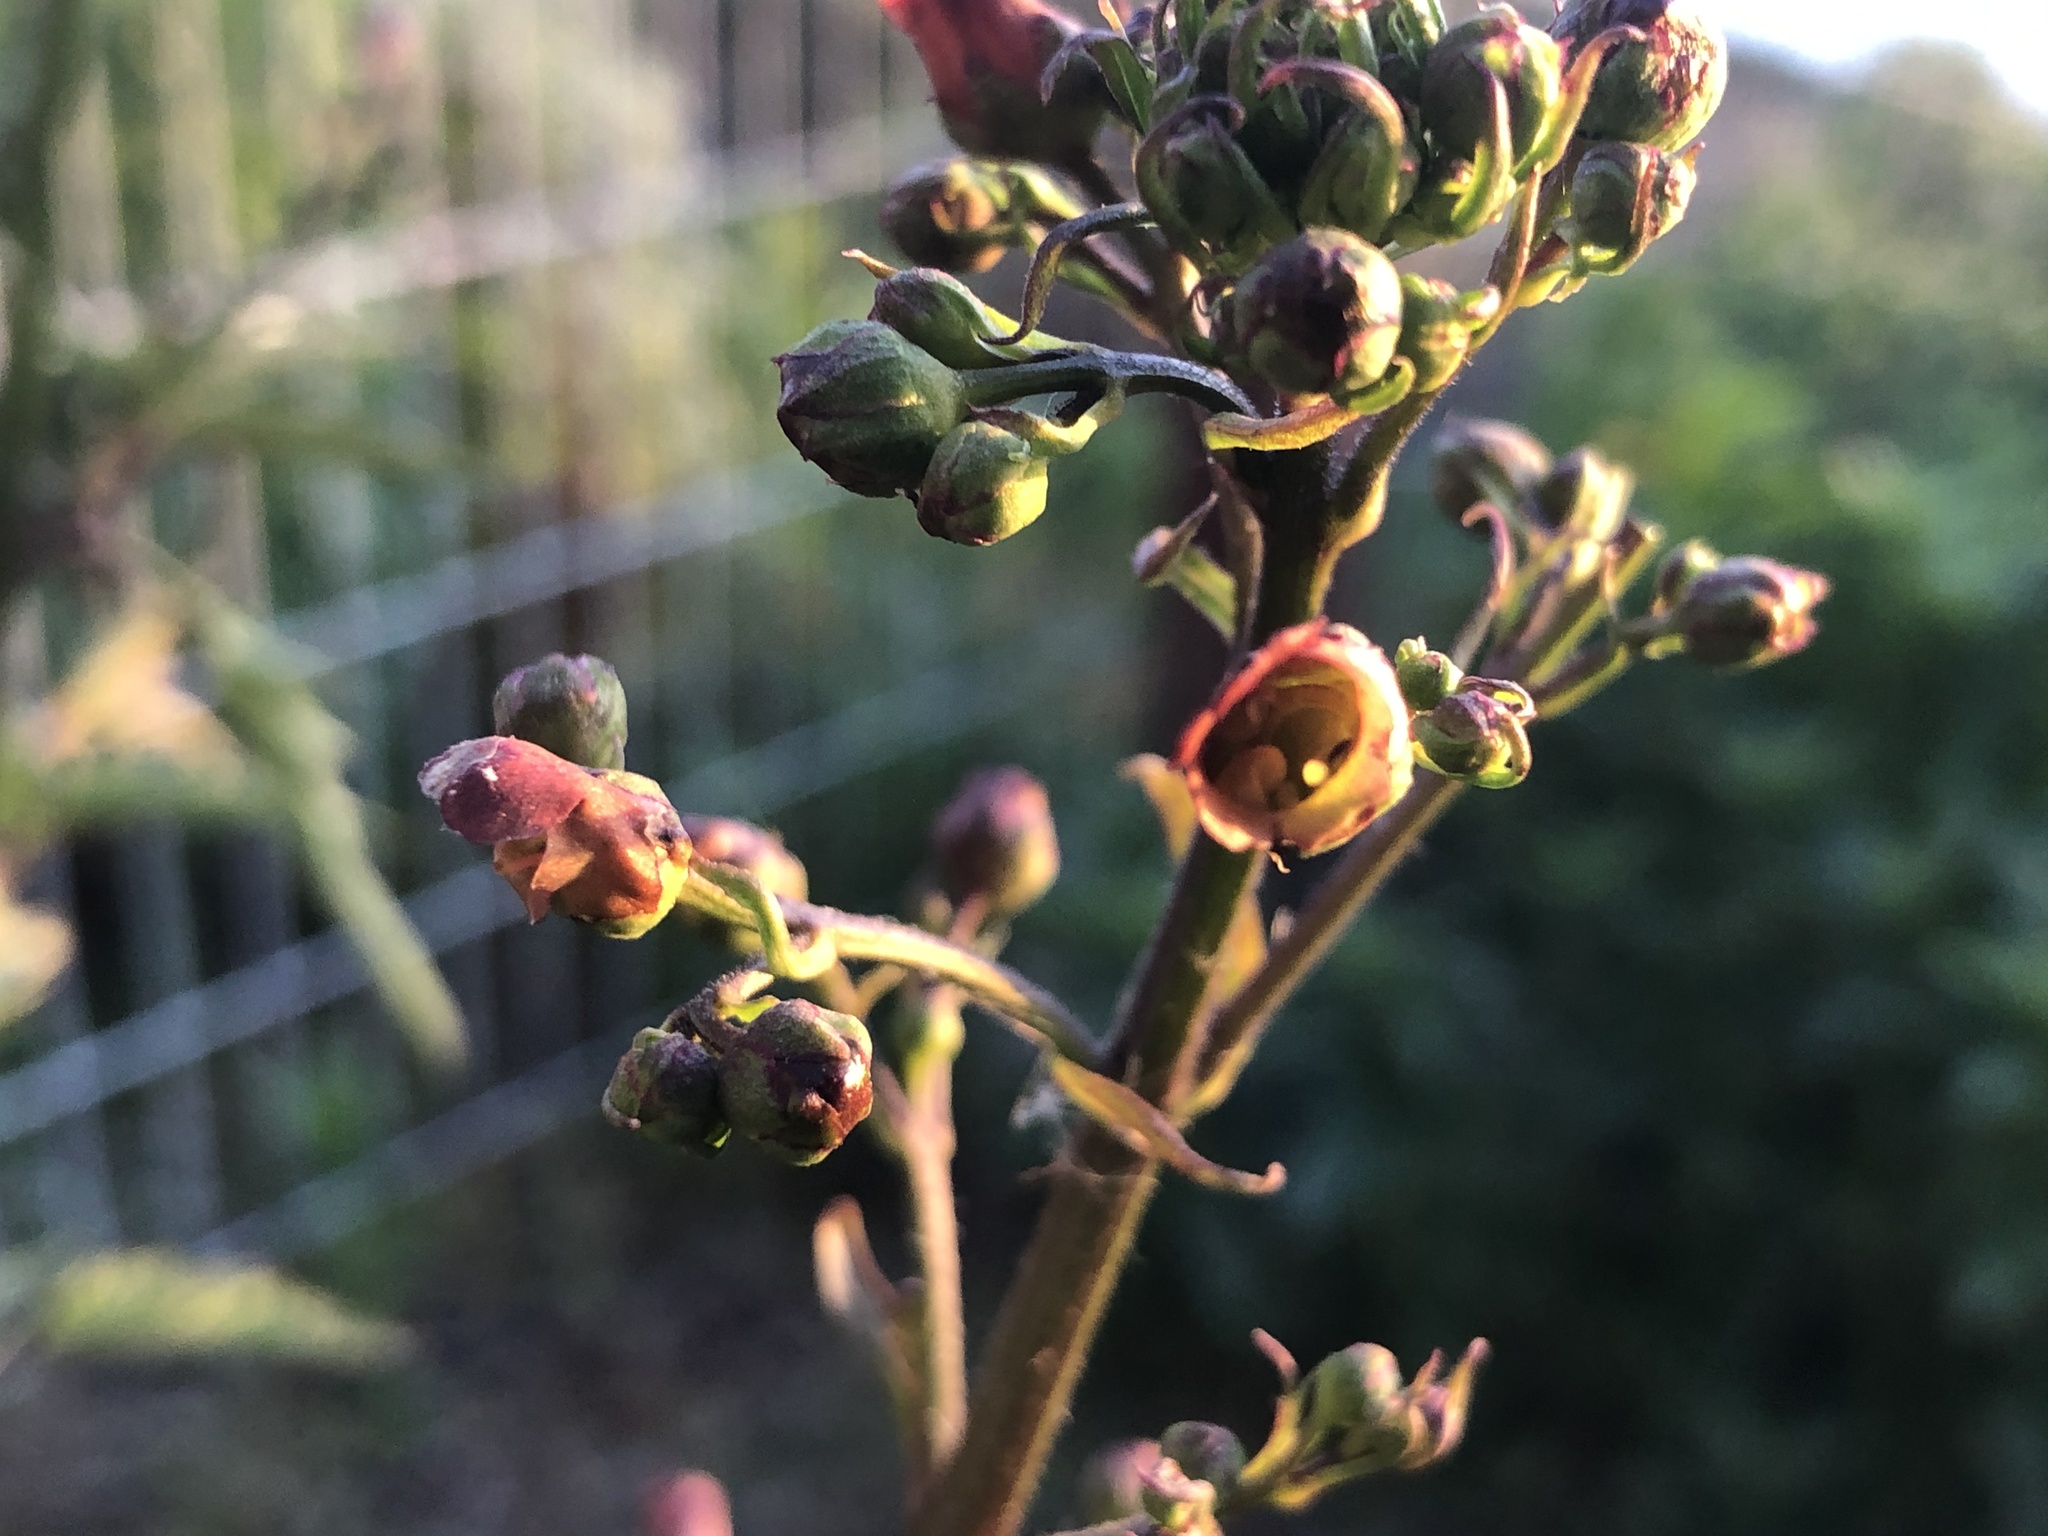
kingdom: Plantae
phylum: Tracheophyta
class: Magnoliopsida
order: Lamiales
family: Scrophulariaceae
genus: Scrophularia
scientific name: Scrophularia californica
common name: California figwort
